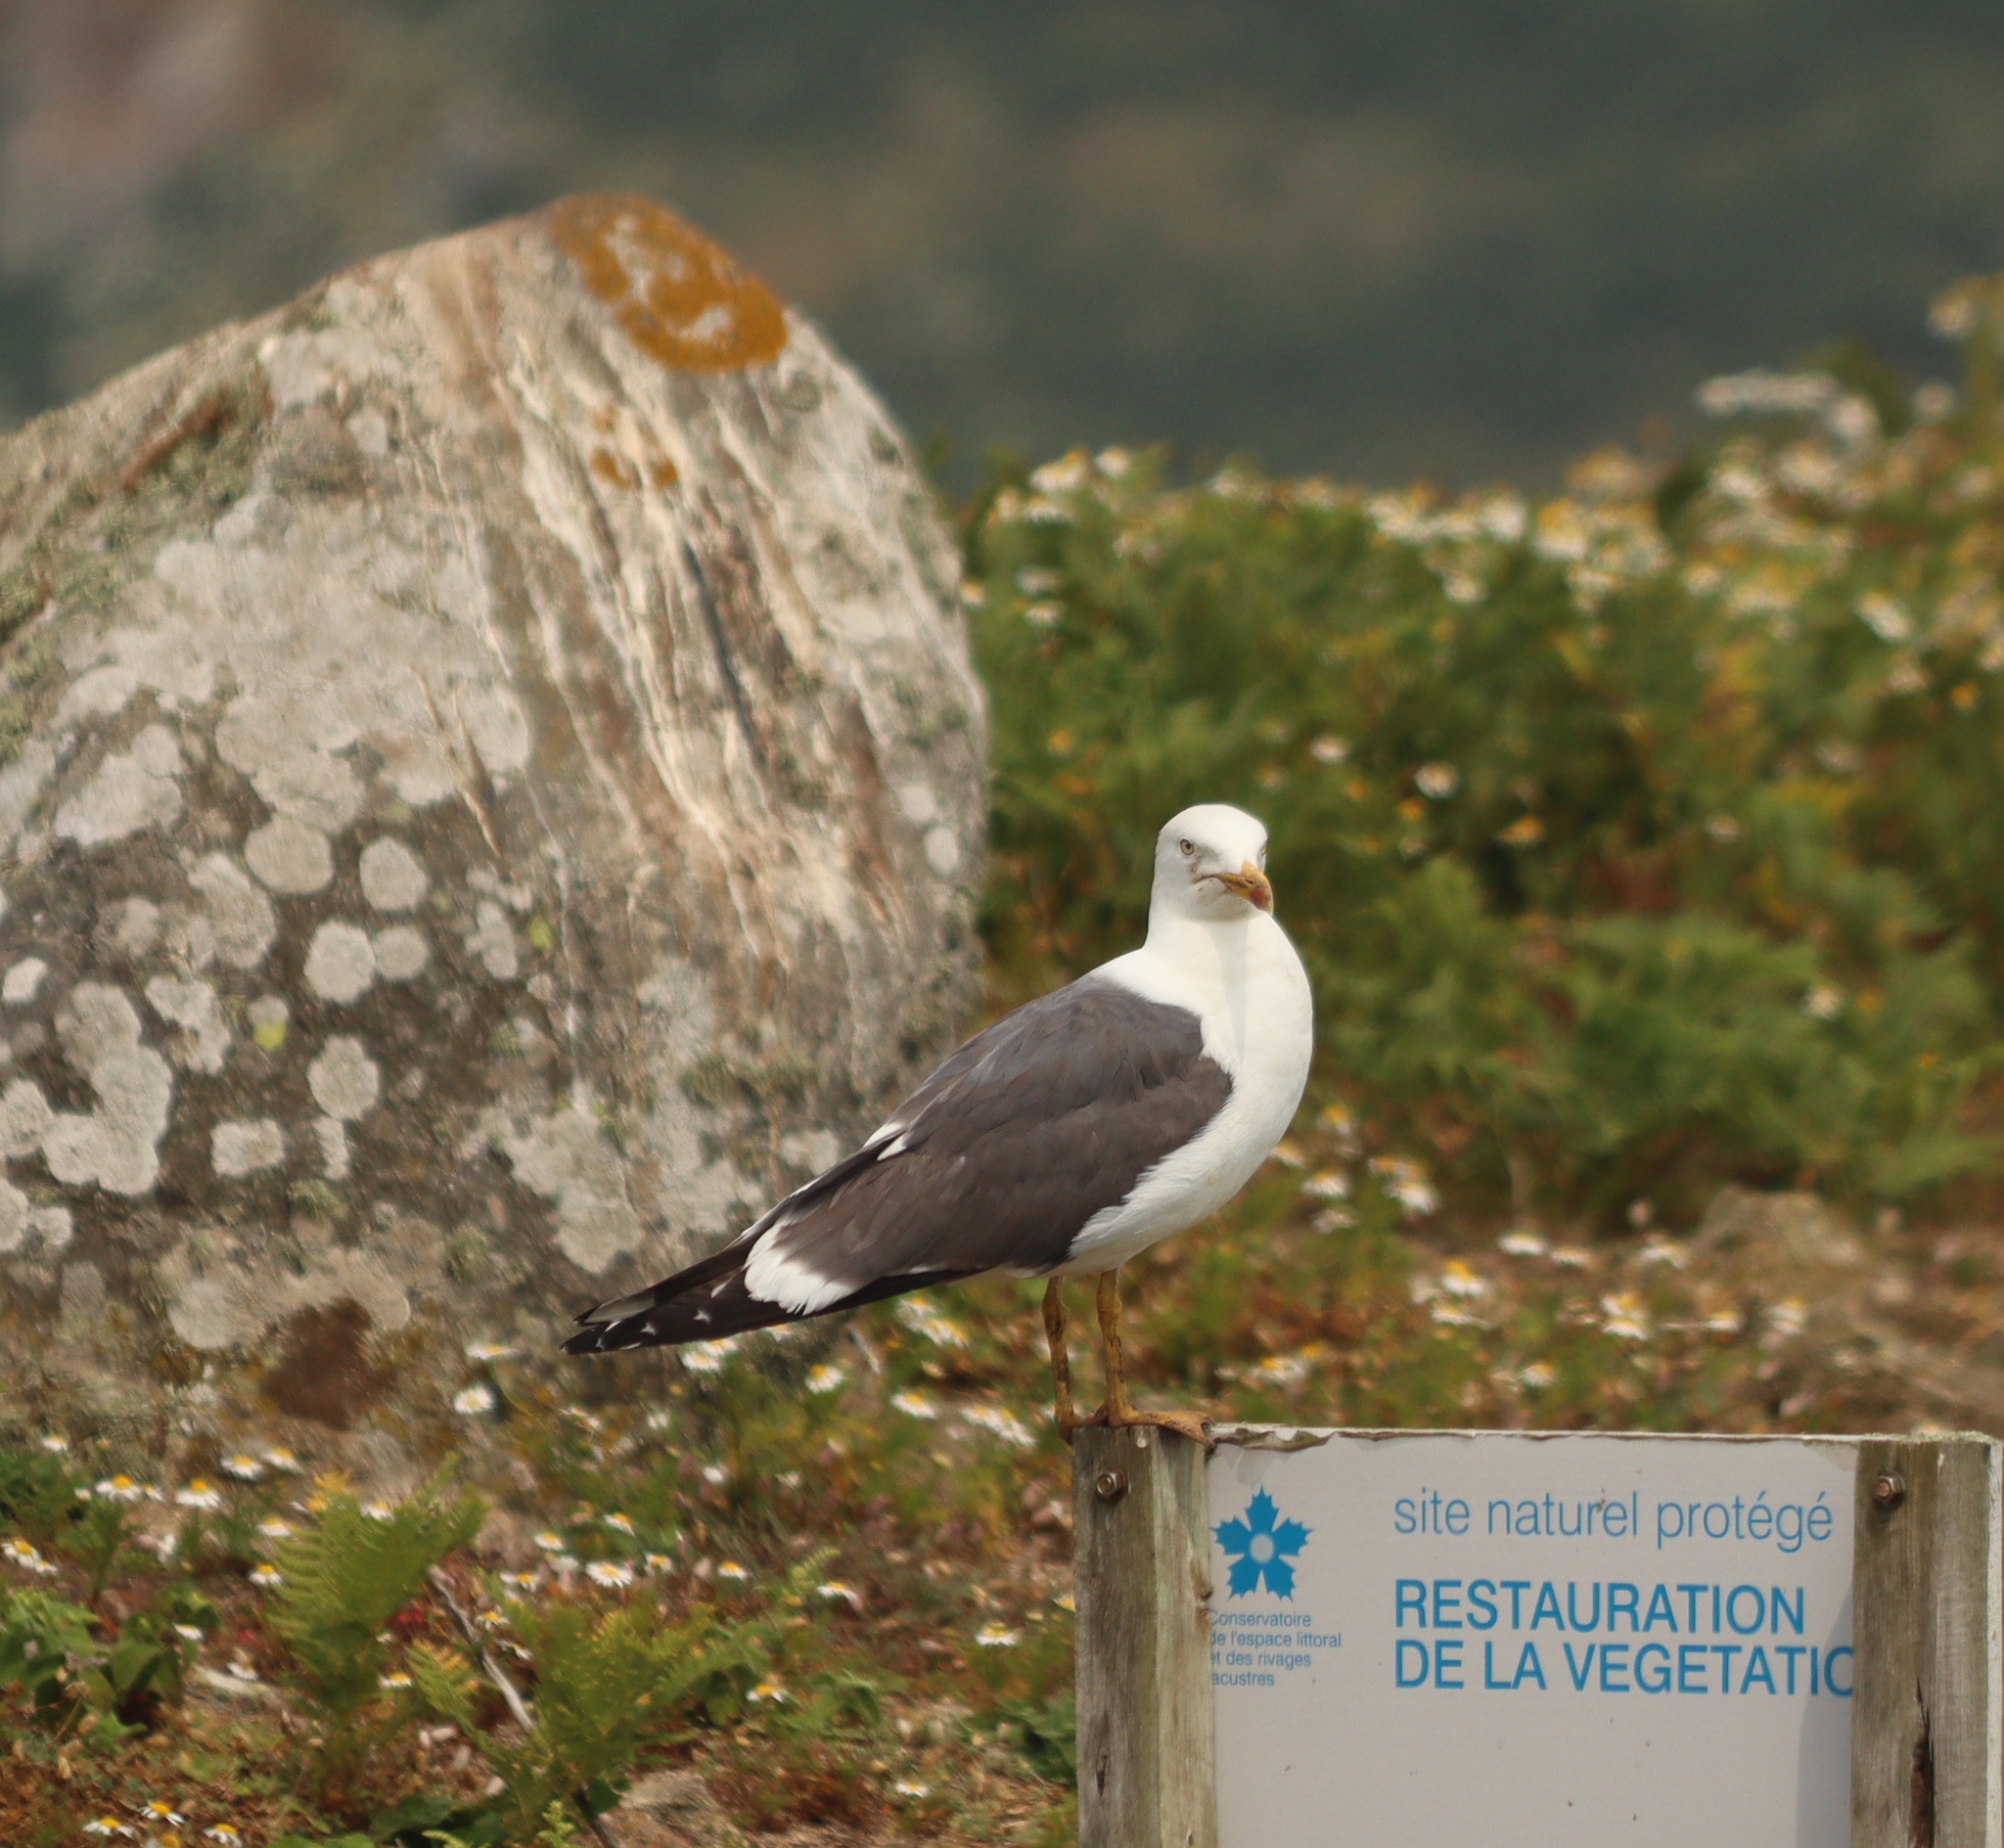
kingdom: Animalia
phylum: Chordata
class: Aves
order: Charadriiformes
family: Laridae
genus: Larus
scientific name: Larus fuscus
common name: Lesser black-backed gull
